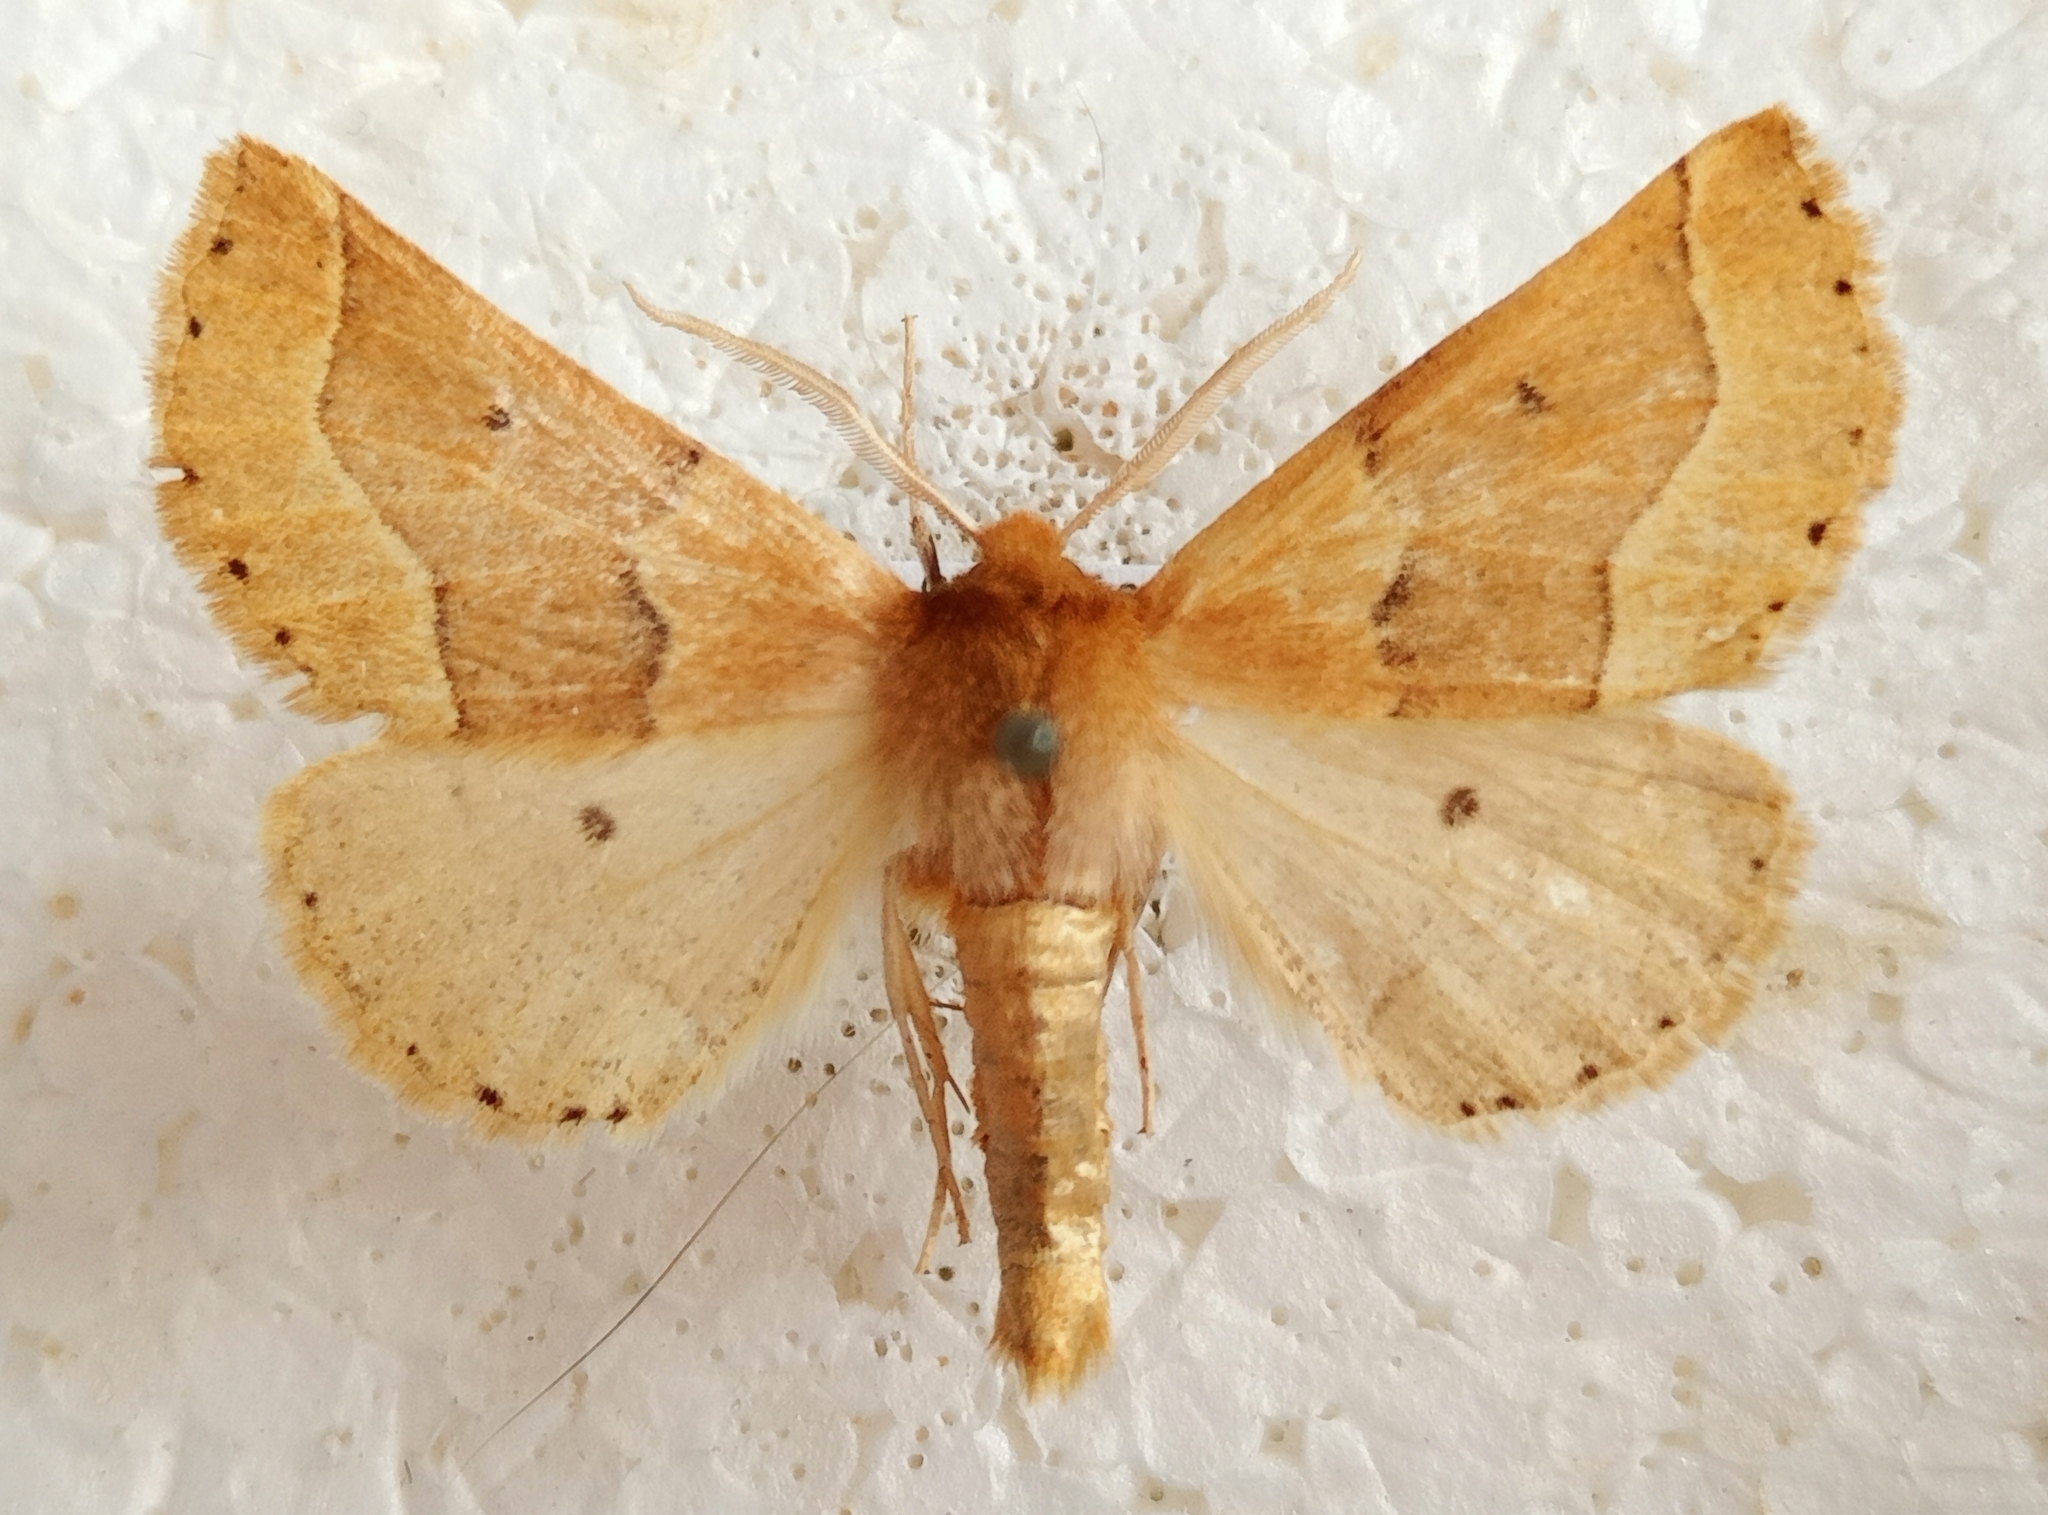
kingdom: Animalia
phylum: Arthropoda
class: Insecta
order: Lepidoptera
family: Geometridae
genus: Crocallis
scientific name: Crocallis tusciaria
